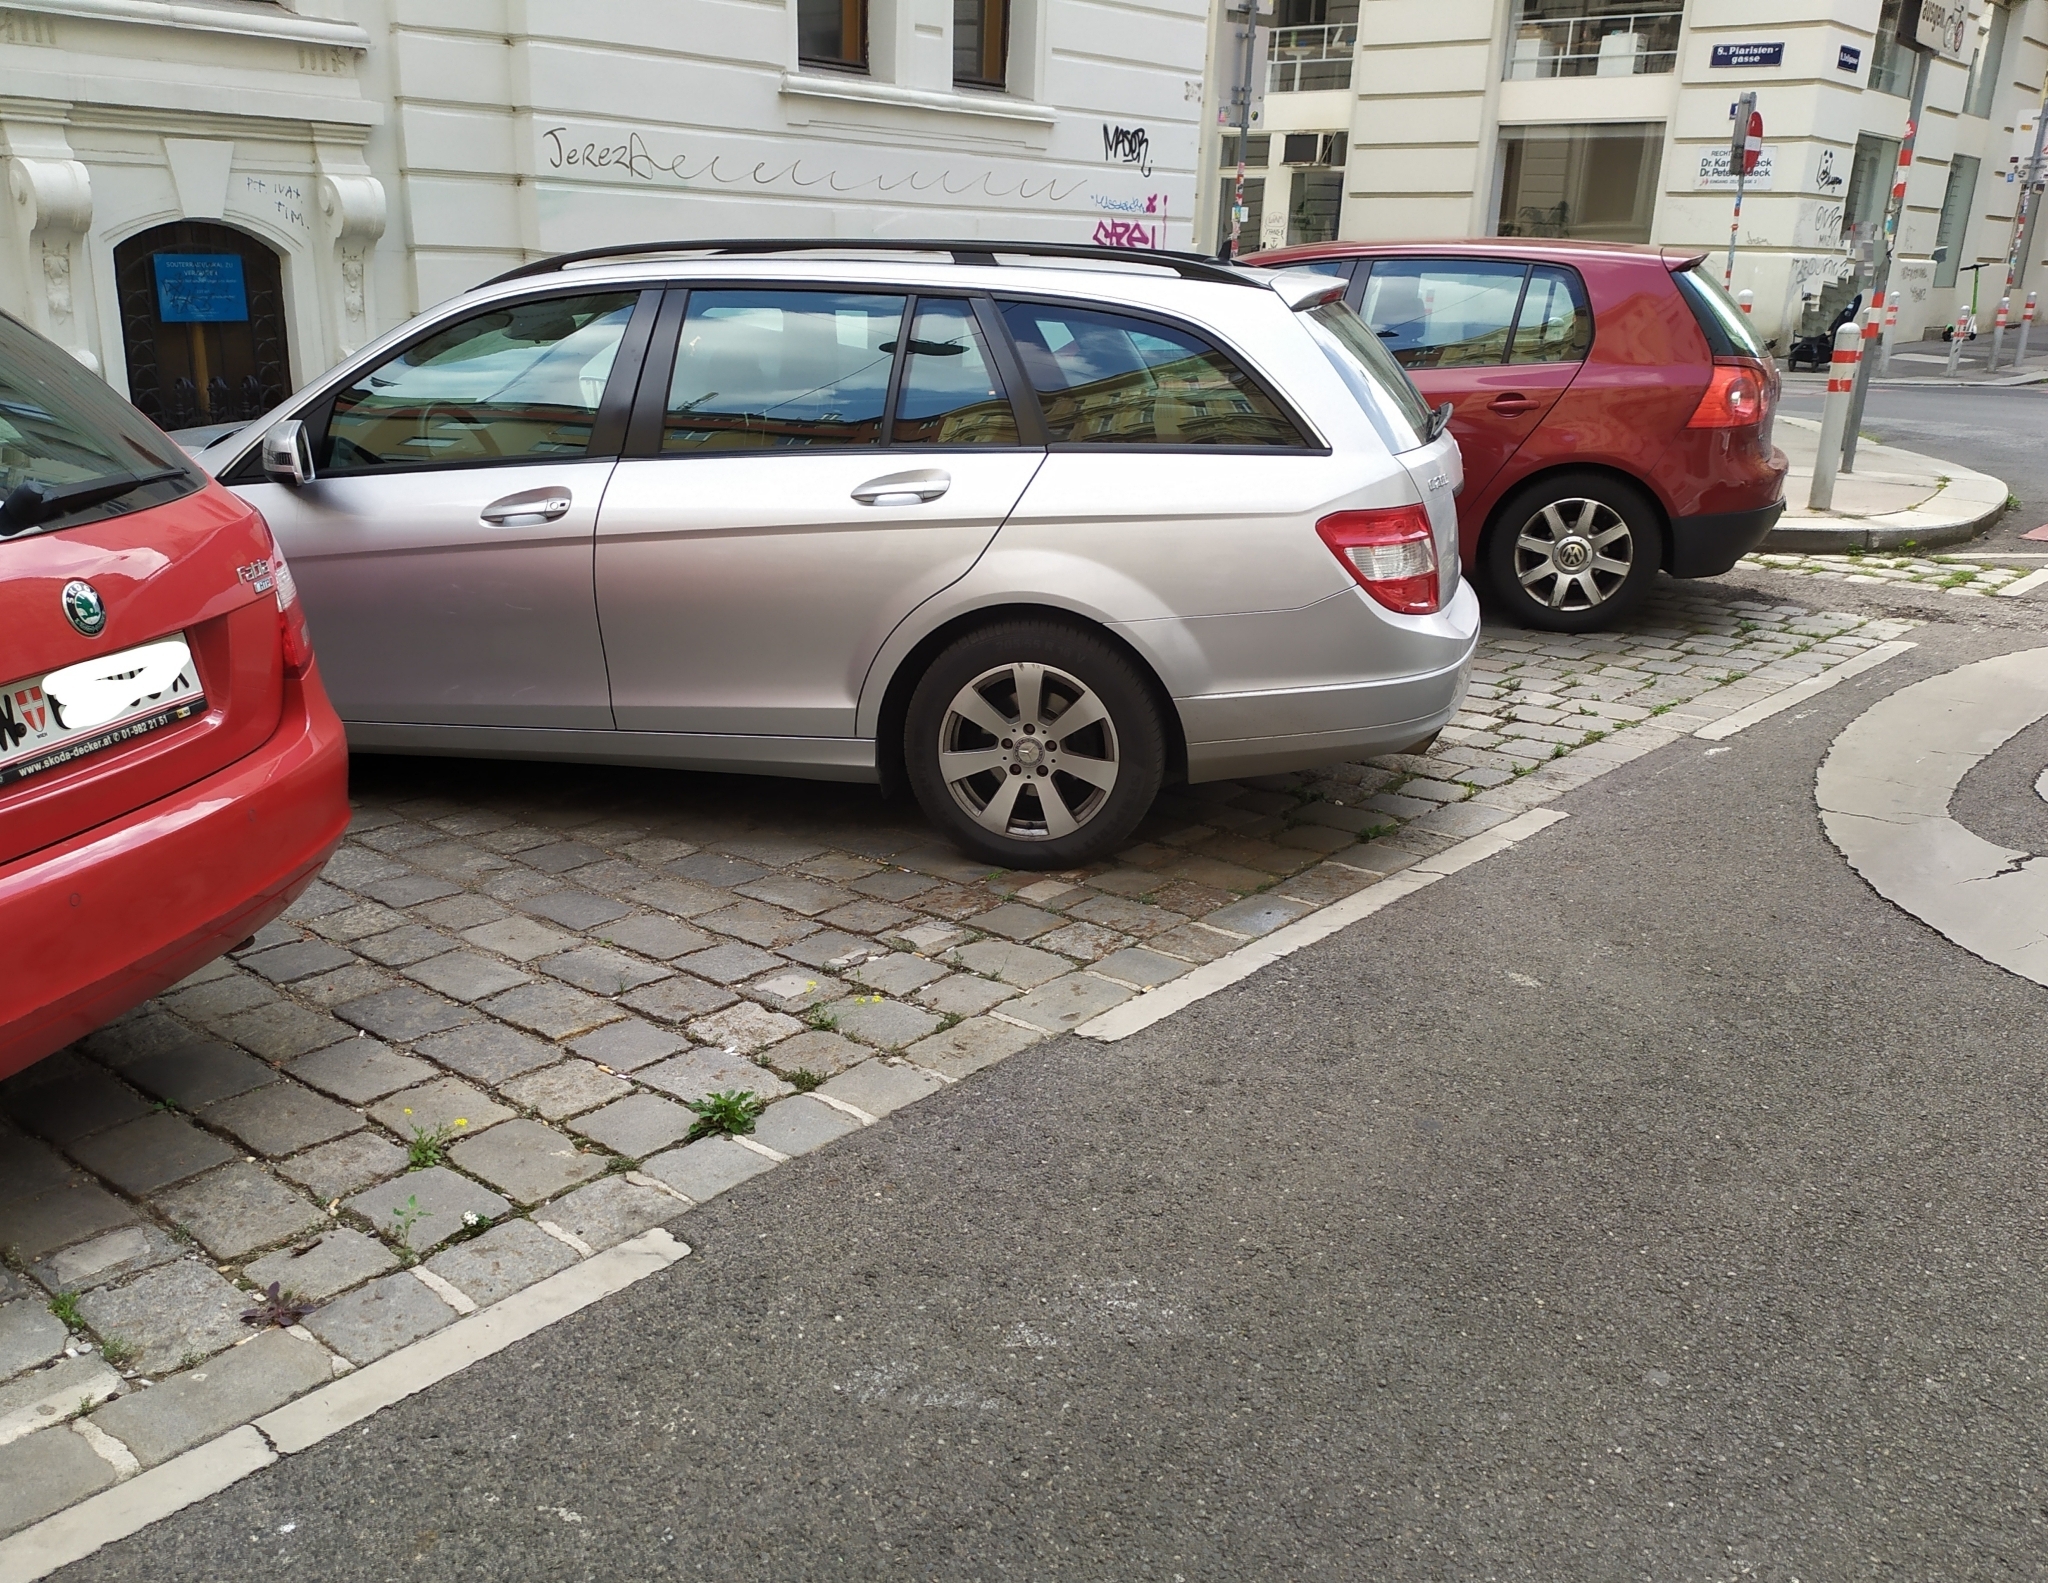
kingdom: Plantae
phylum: Tracheophyta
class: Magnoliopsida
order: Lamiales
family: Scrophulariaceae
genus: Chaenostoma
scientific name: Chaenostoma cordatum
